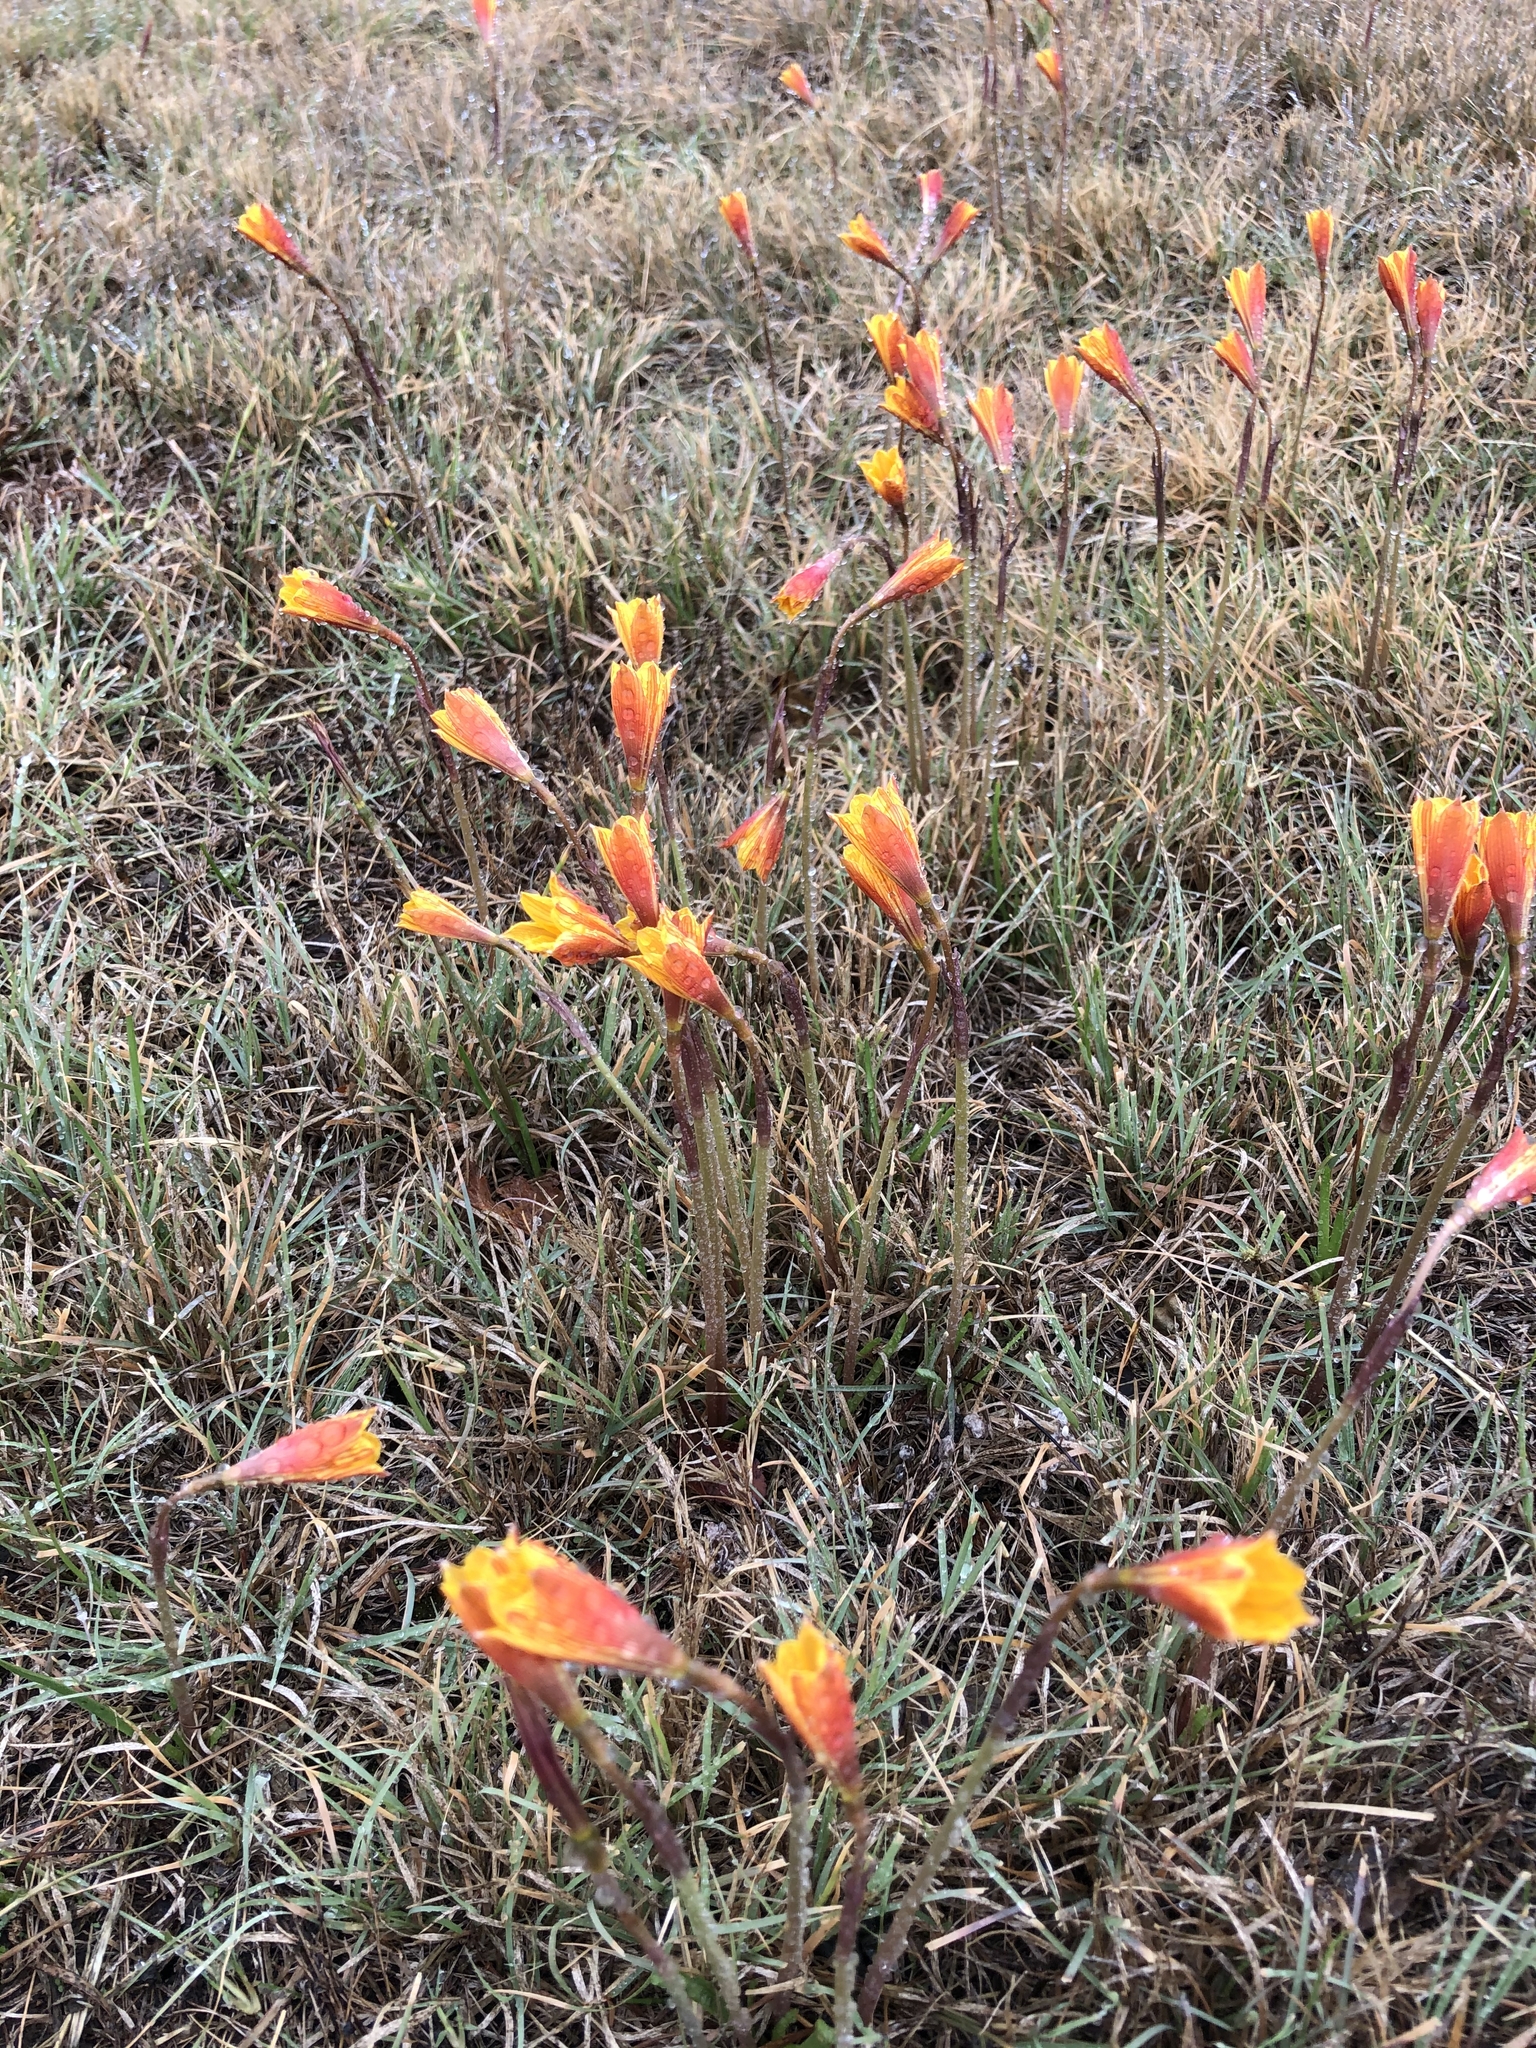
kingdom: Plantae
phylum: Tracheophyta
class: Liliopsida
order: Asparagales
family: Amaryllidaceae
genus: Zephyranthes
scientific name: Zephyranthes tubispatha
